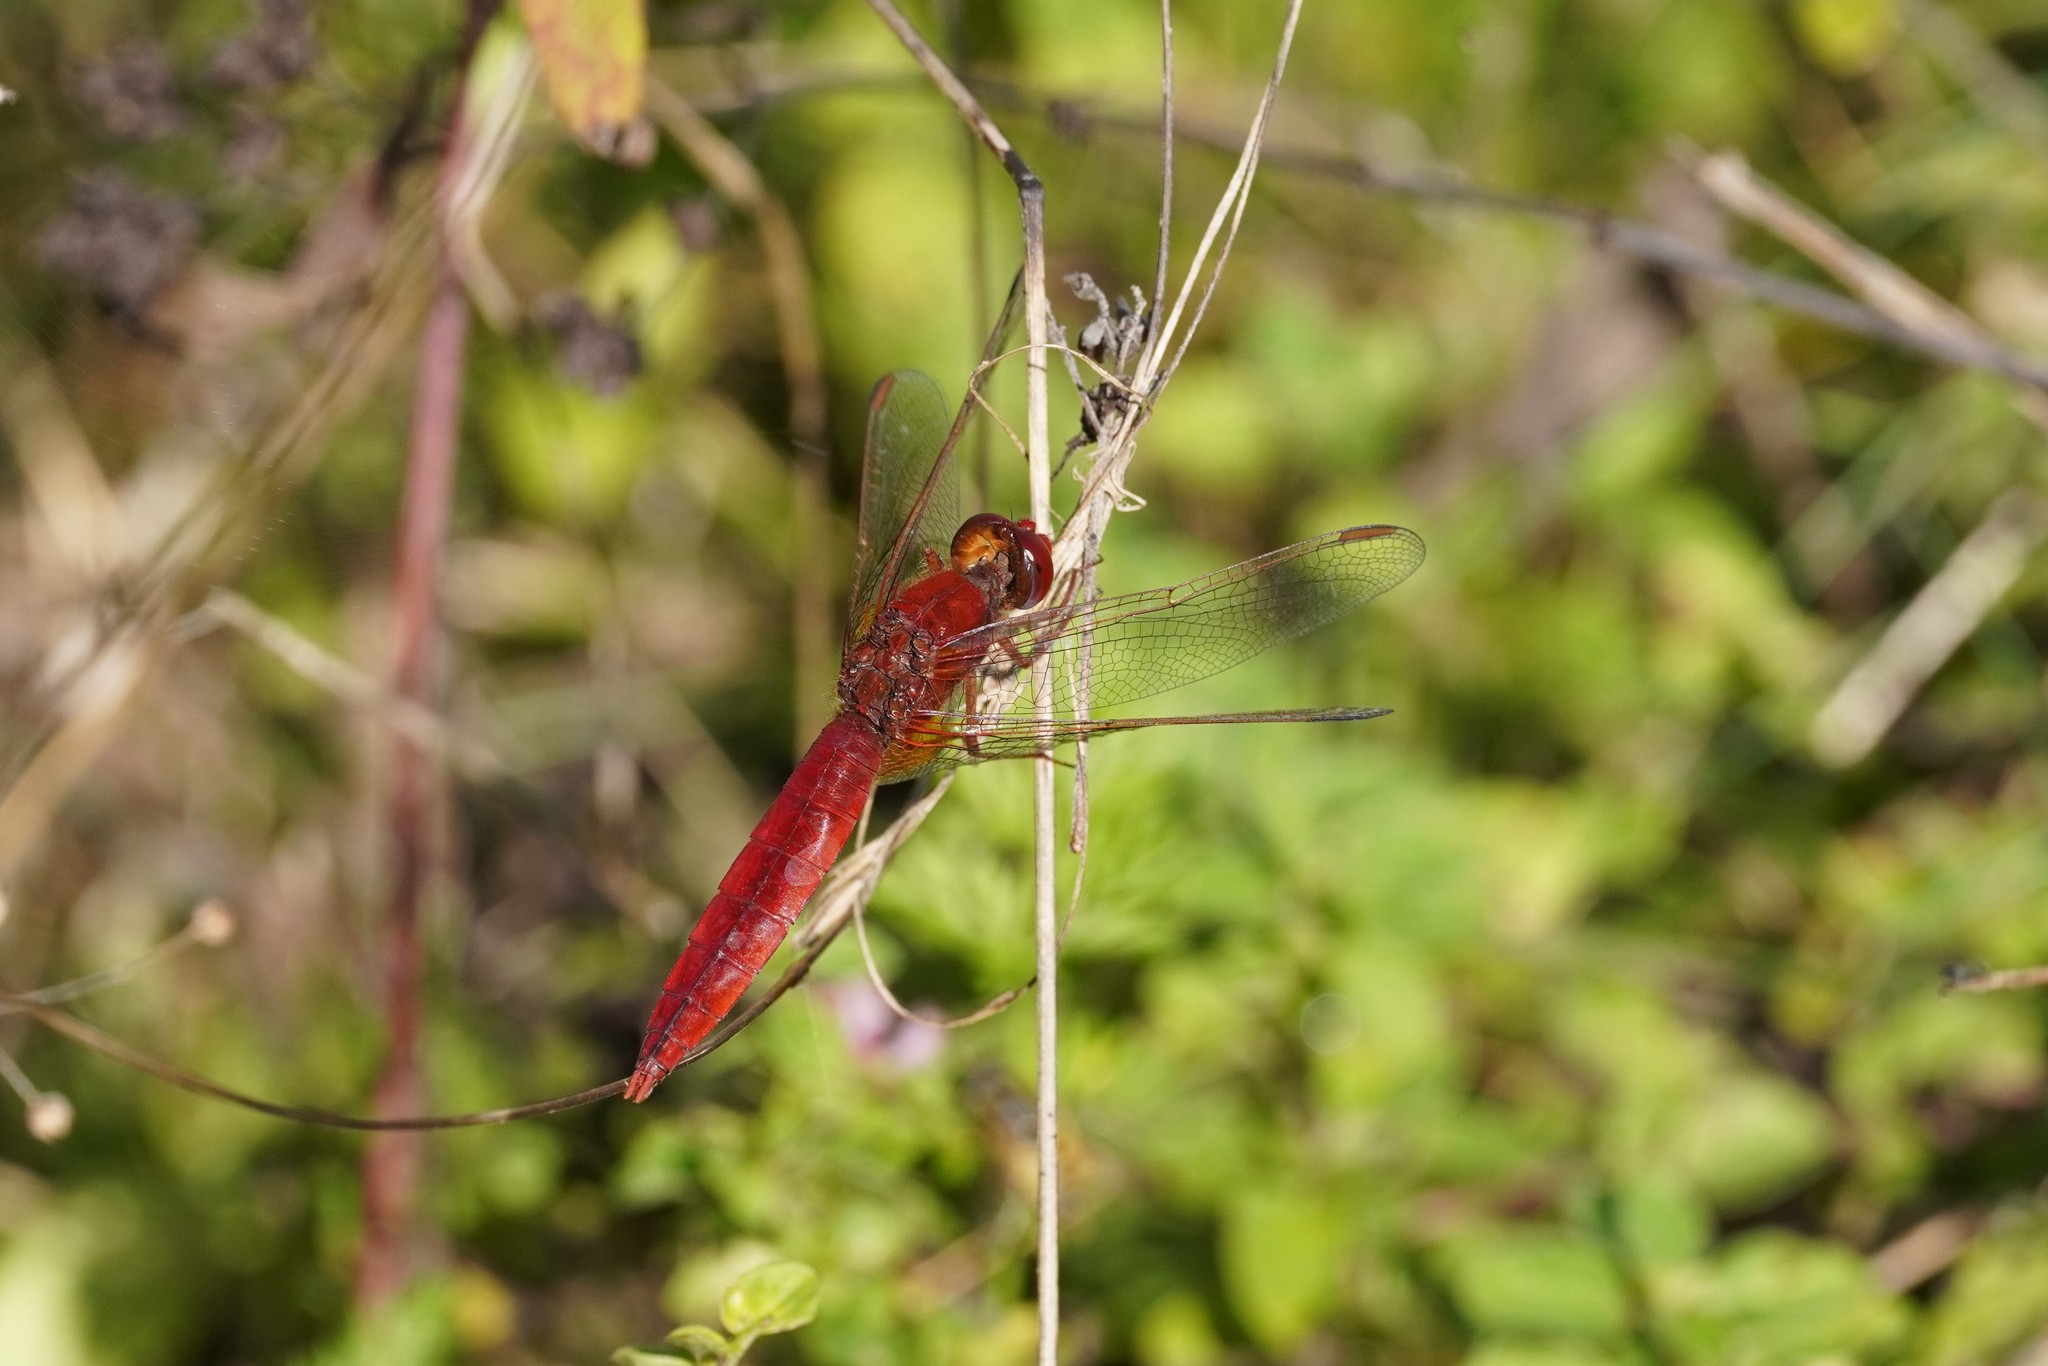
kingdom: Animalia
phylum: Arthropoda
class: Insecta
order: Odonata
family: Libellulidae
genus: Crocothemis
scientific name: Crocothemis erythraea
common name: Scarlet dragonfly
